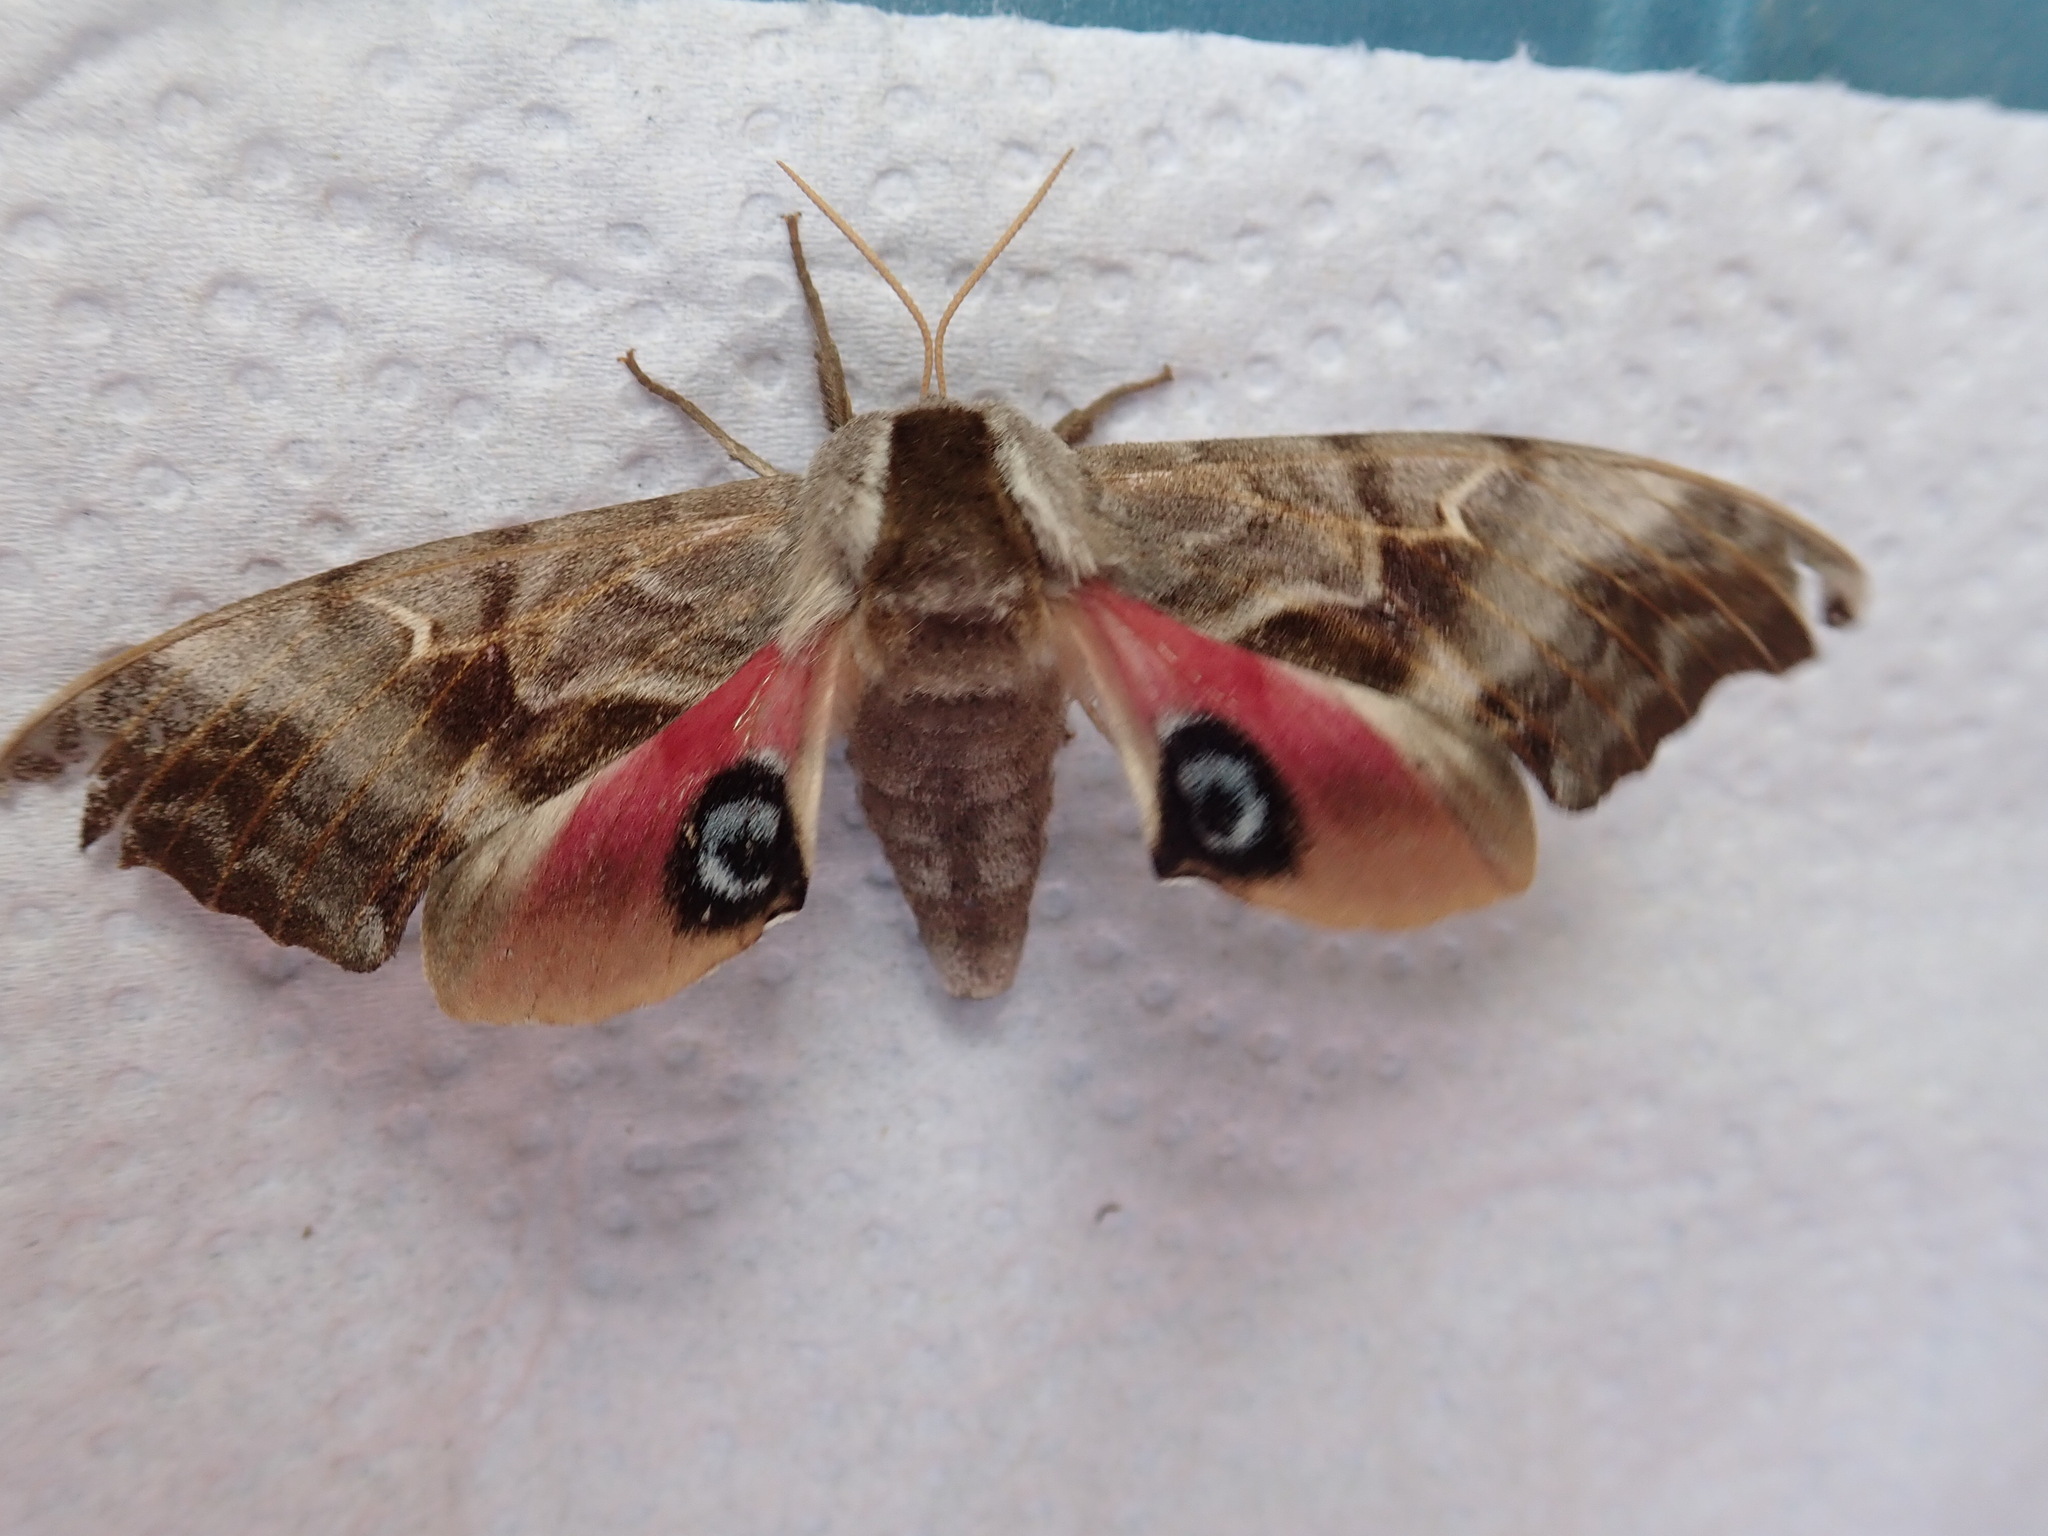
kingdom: Animalia
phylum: Arthropoda
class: Insecta
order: Lepidoptera
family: Sphingidae
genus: Smerinthus
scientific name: Smerinthus cerisyi
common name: Cerisy's sphinx moth
